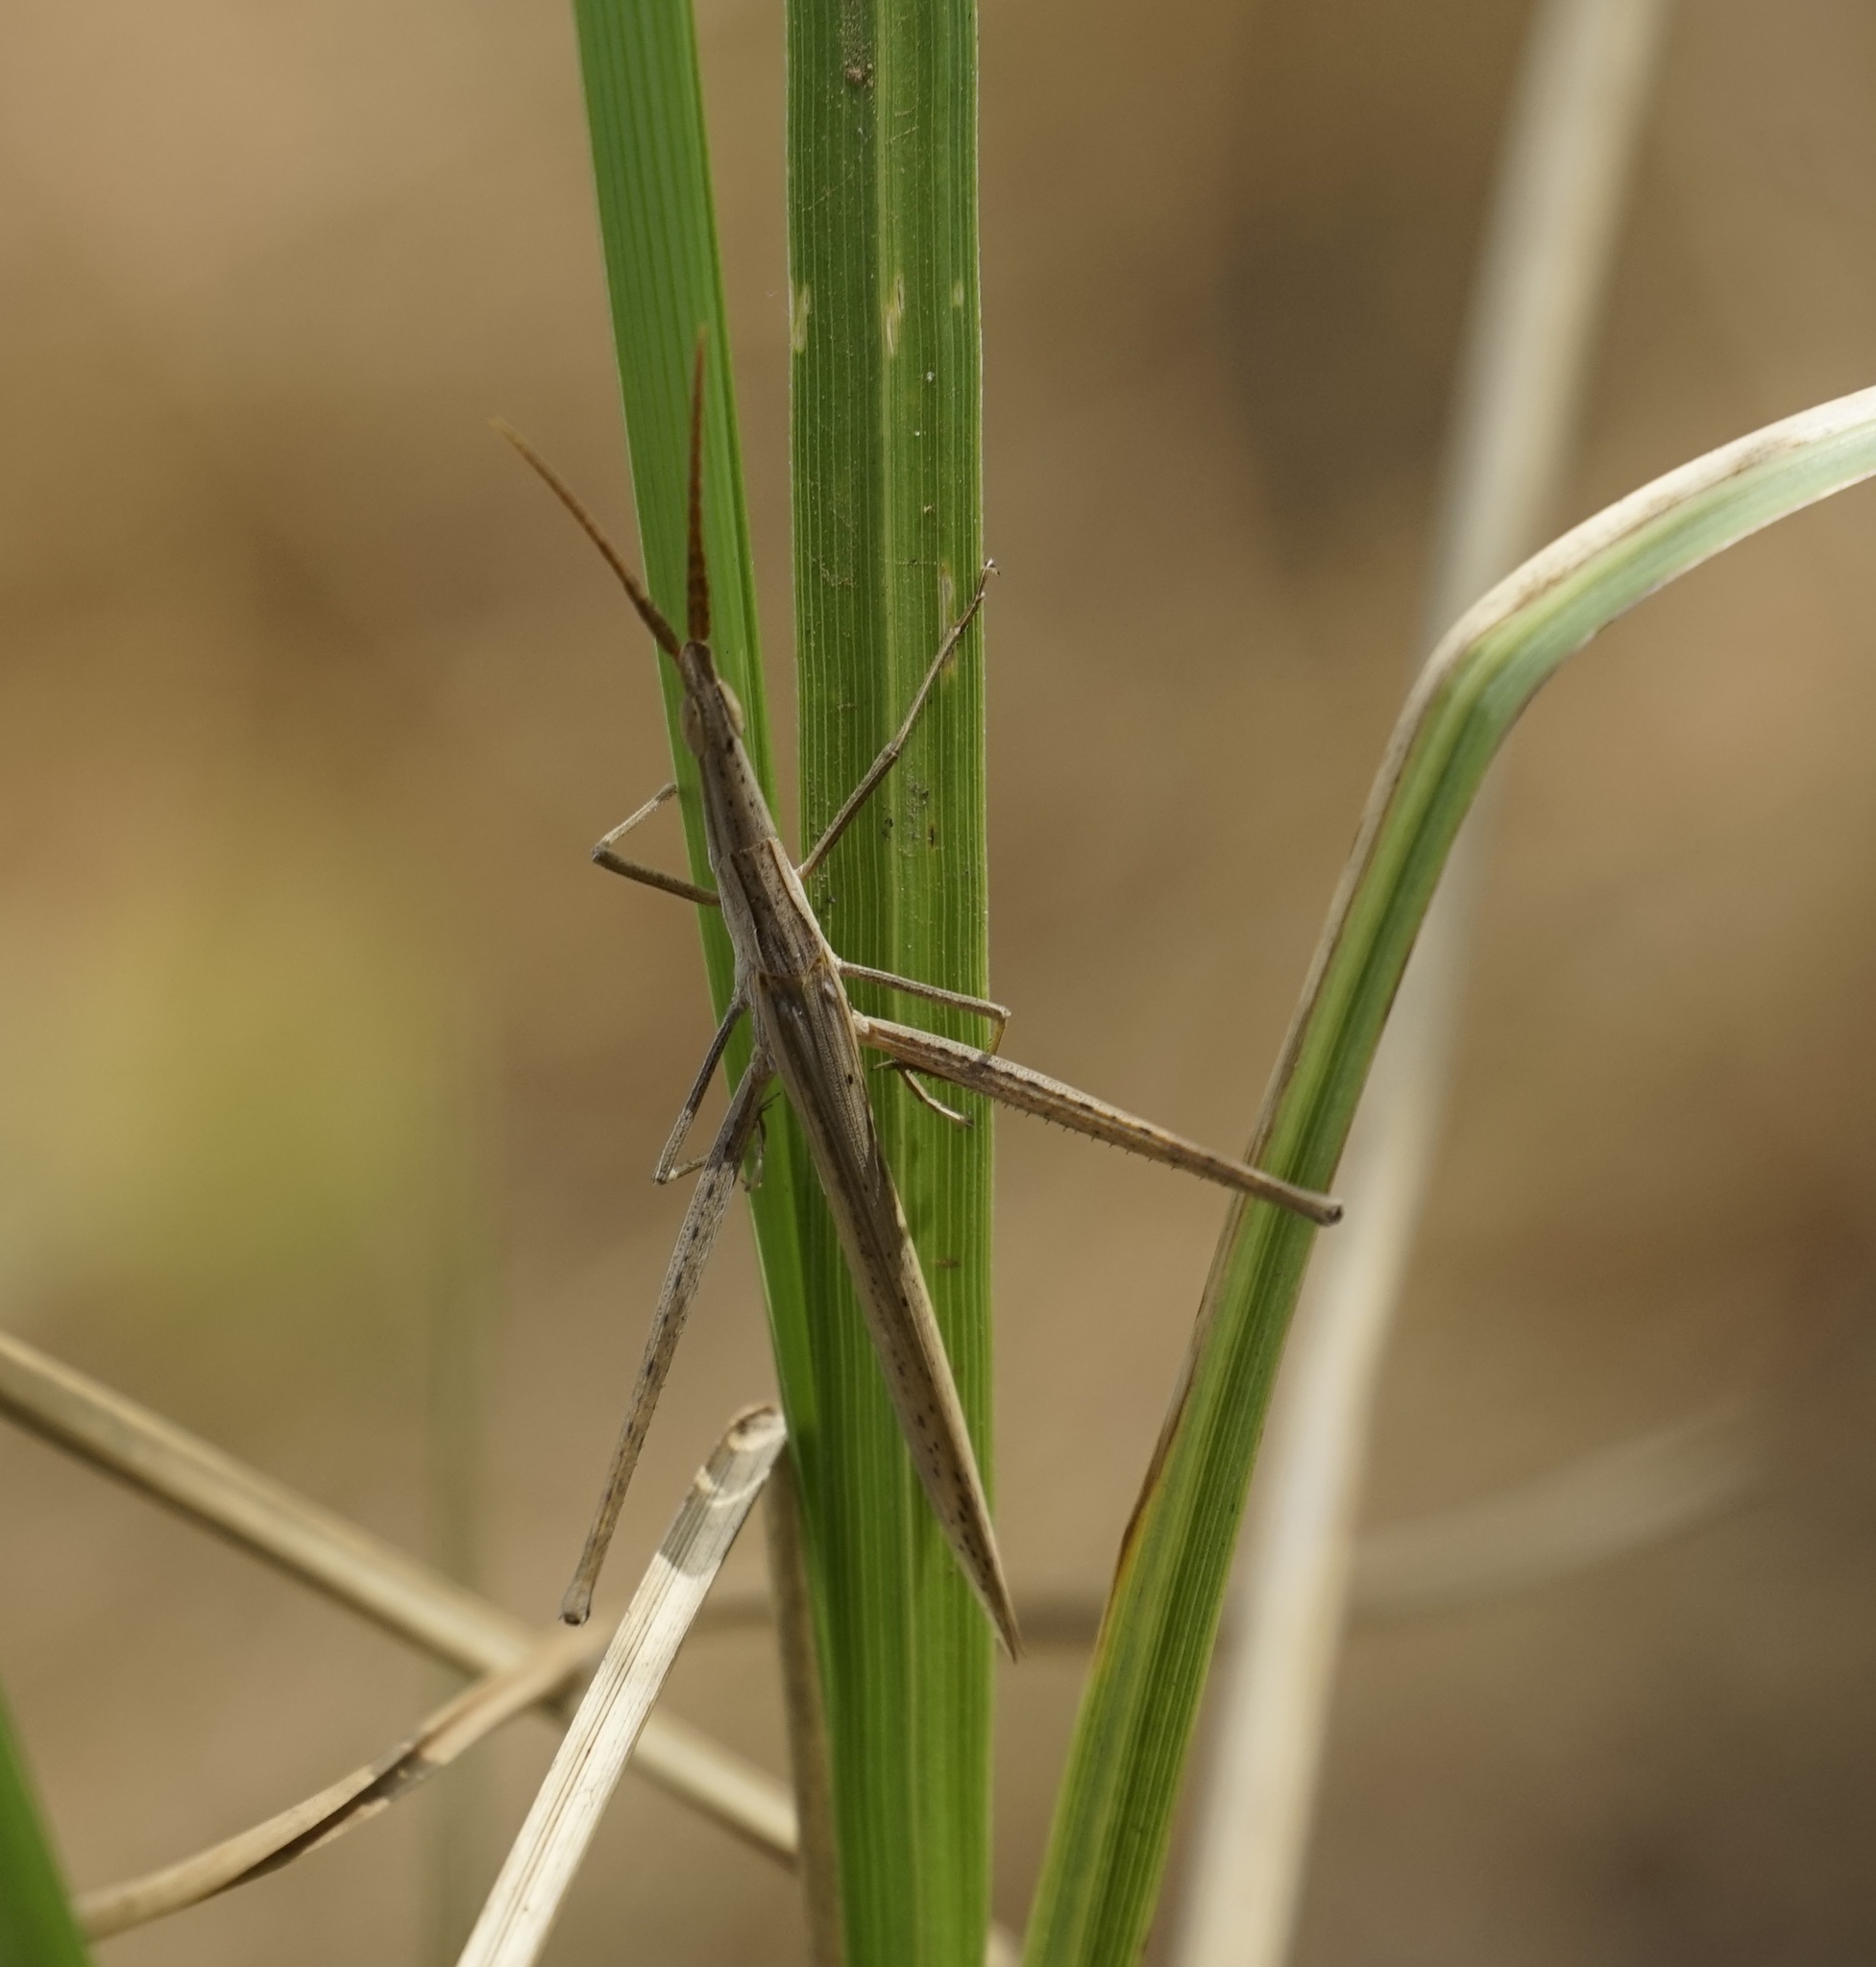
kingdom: Animalia
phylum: Arthropoda
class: Insecta
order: Orthoptera
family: Acrididae
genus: Acrida
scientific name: Acrida conica
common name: Giant green slantface
